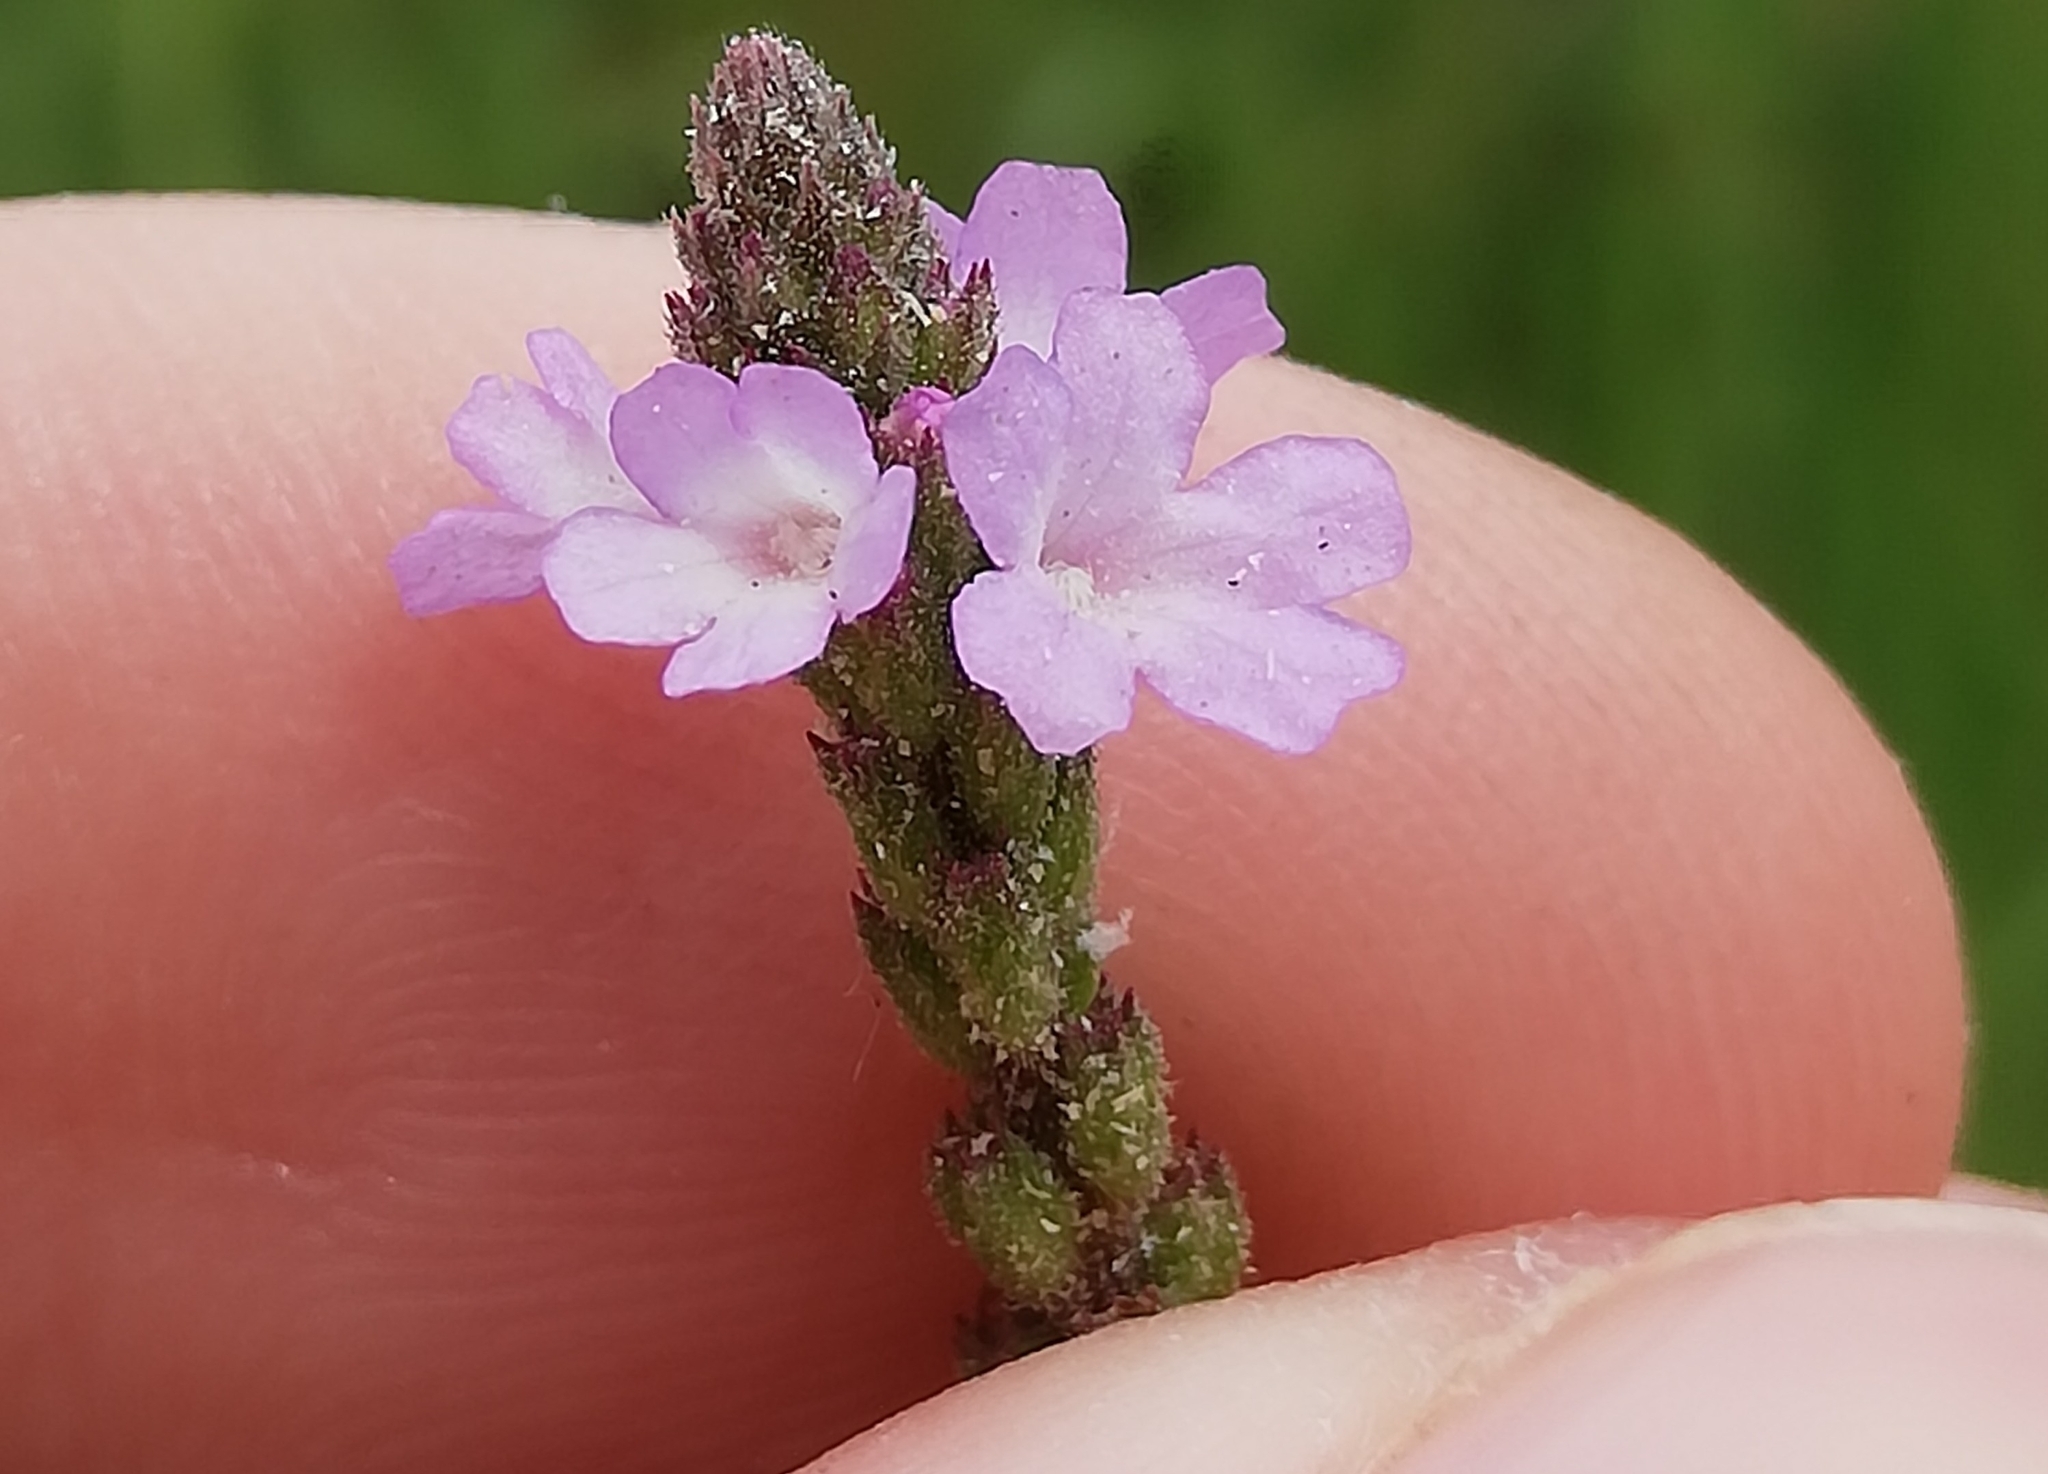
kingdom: Plantae
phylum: Tracheophyta
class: Magnoliopsida
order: Lamiales
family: Verbenaceae
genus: Verbena
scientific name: Verbena officinalis
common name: Vervain
